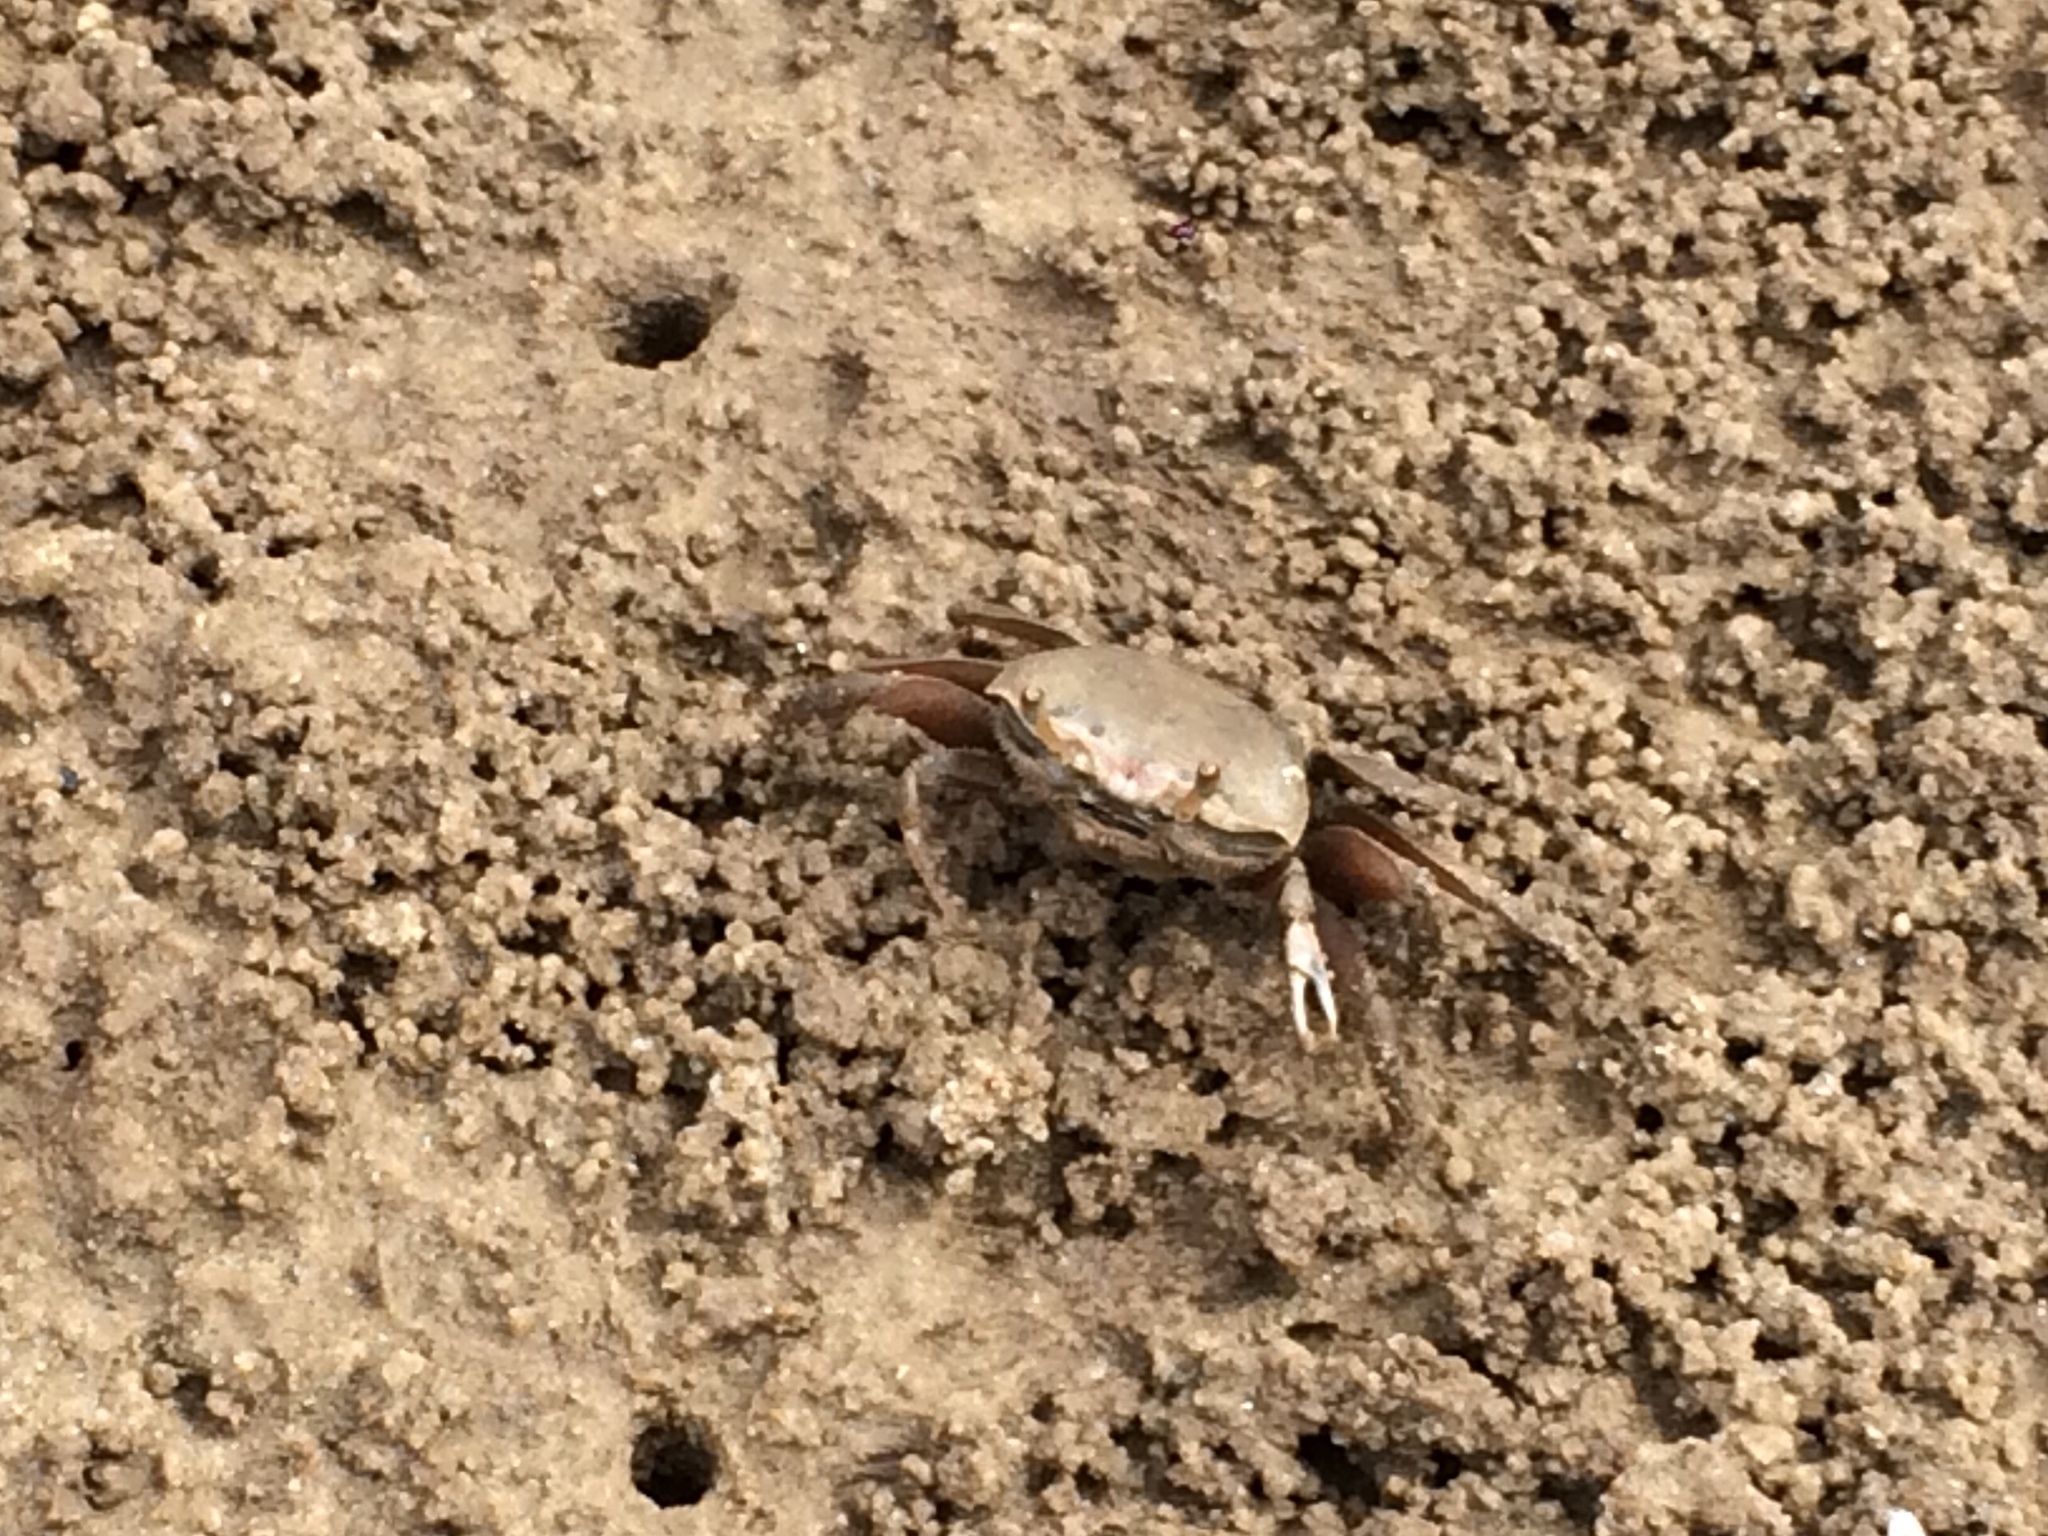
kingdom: Animalia
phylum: Arthropoda
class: Malacostraca
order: Decapoda
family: Ocypodidae
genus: Minuca
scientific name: Minuca rapax
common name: Rapacious fiddler crab
